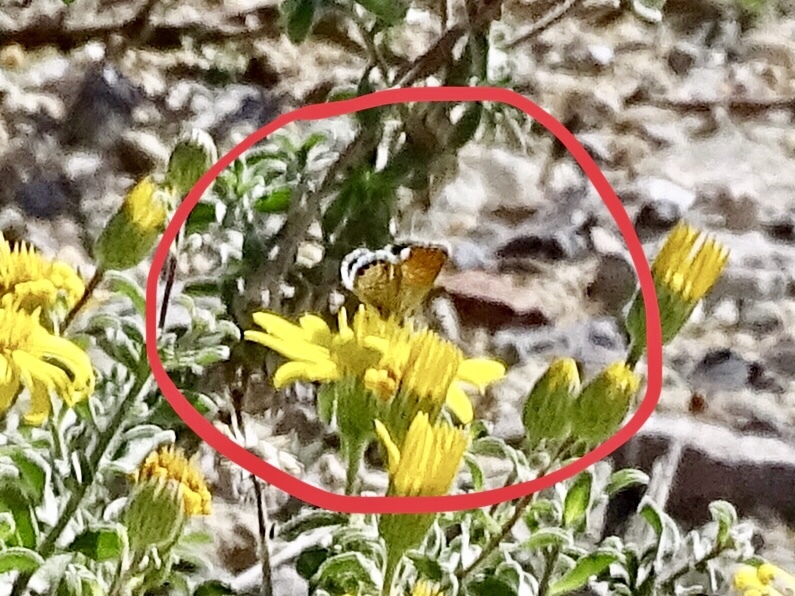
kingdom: Animalia
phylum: Arthropoda
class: Insecta
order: Lepidoptera
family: Lycaenidae
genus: Brephidium
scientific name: Brephidium exilis
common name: Pygmy blue
